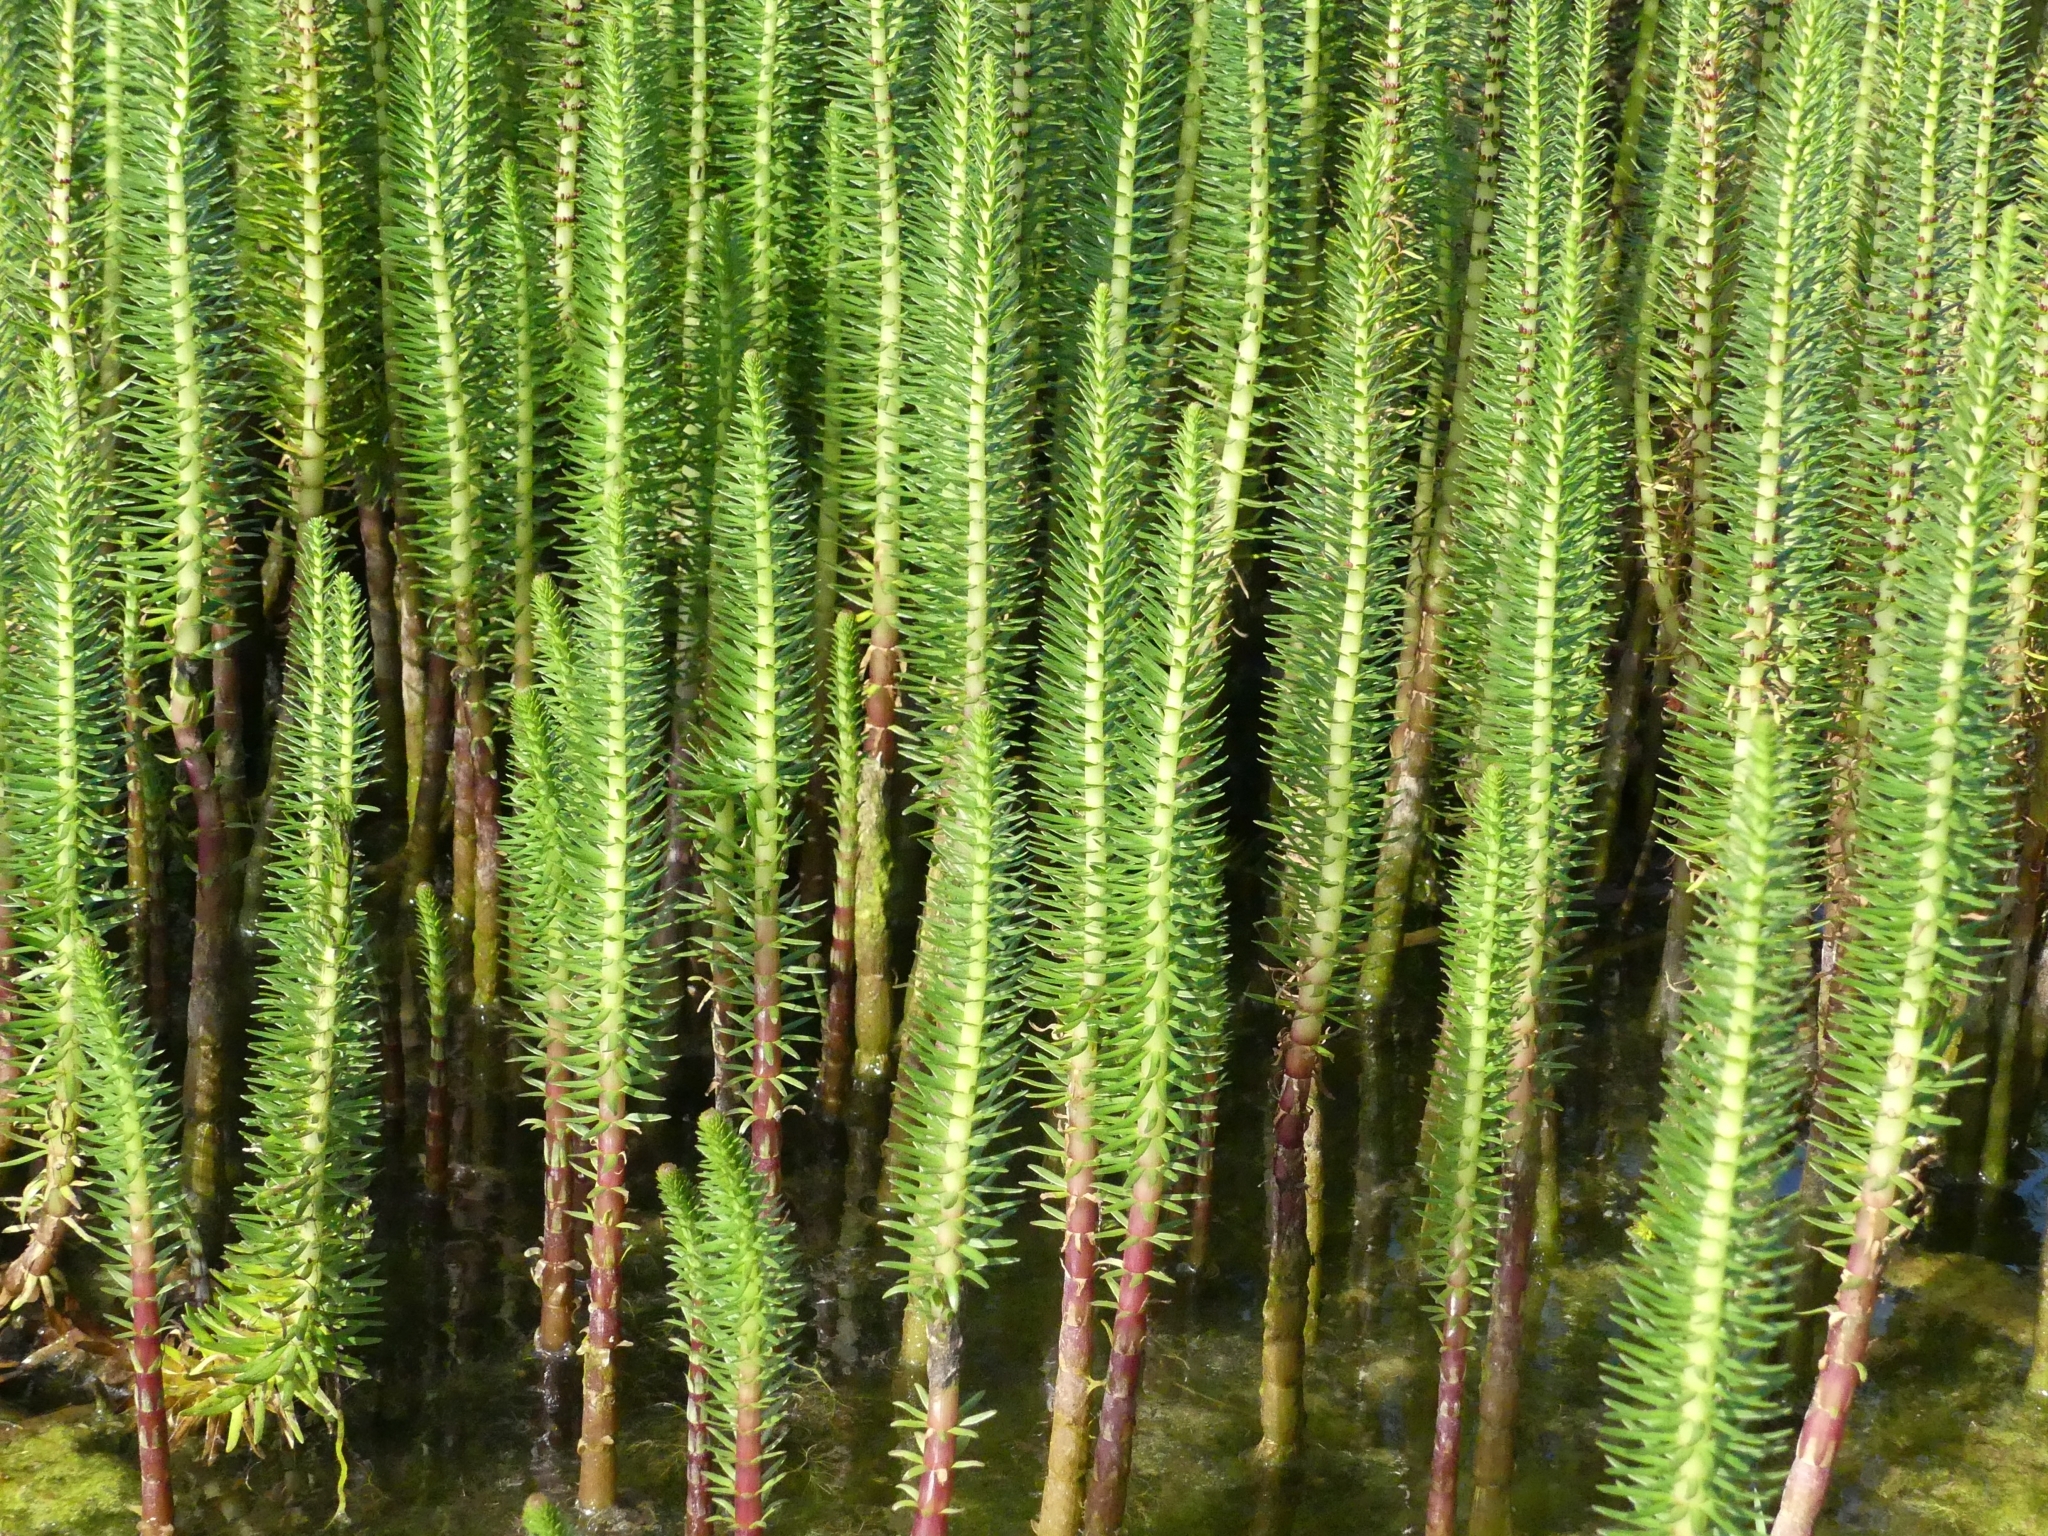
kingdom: Plantae
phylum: Tracheophyta
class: Magnoliopsida
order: Lamiales
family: Plantaginaceae
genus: Hippuris
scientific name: Hippuris vulgaris
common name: Mare's-tail
